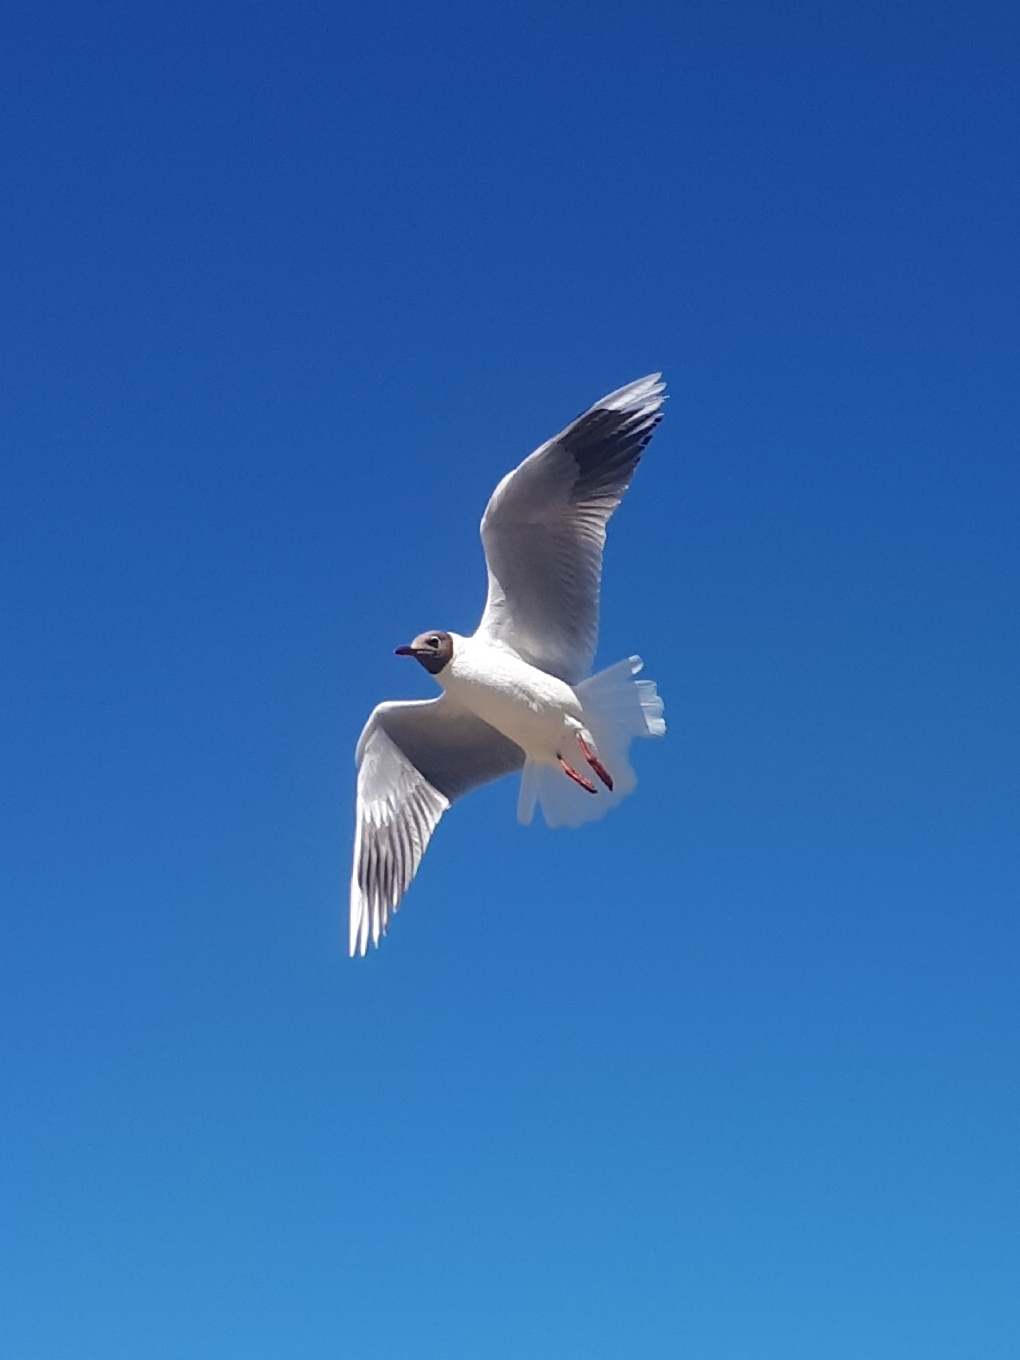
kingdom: Animalia
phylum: Chordata
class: Aves
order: Charadriiformes
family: Laridae
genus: Chroicocephalus
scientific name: Chroicocephalus maculipennis
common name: Brown-hooded gull
